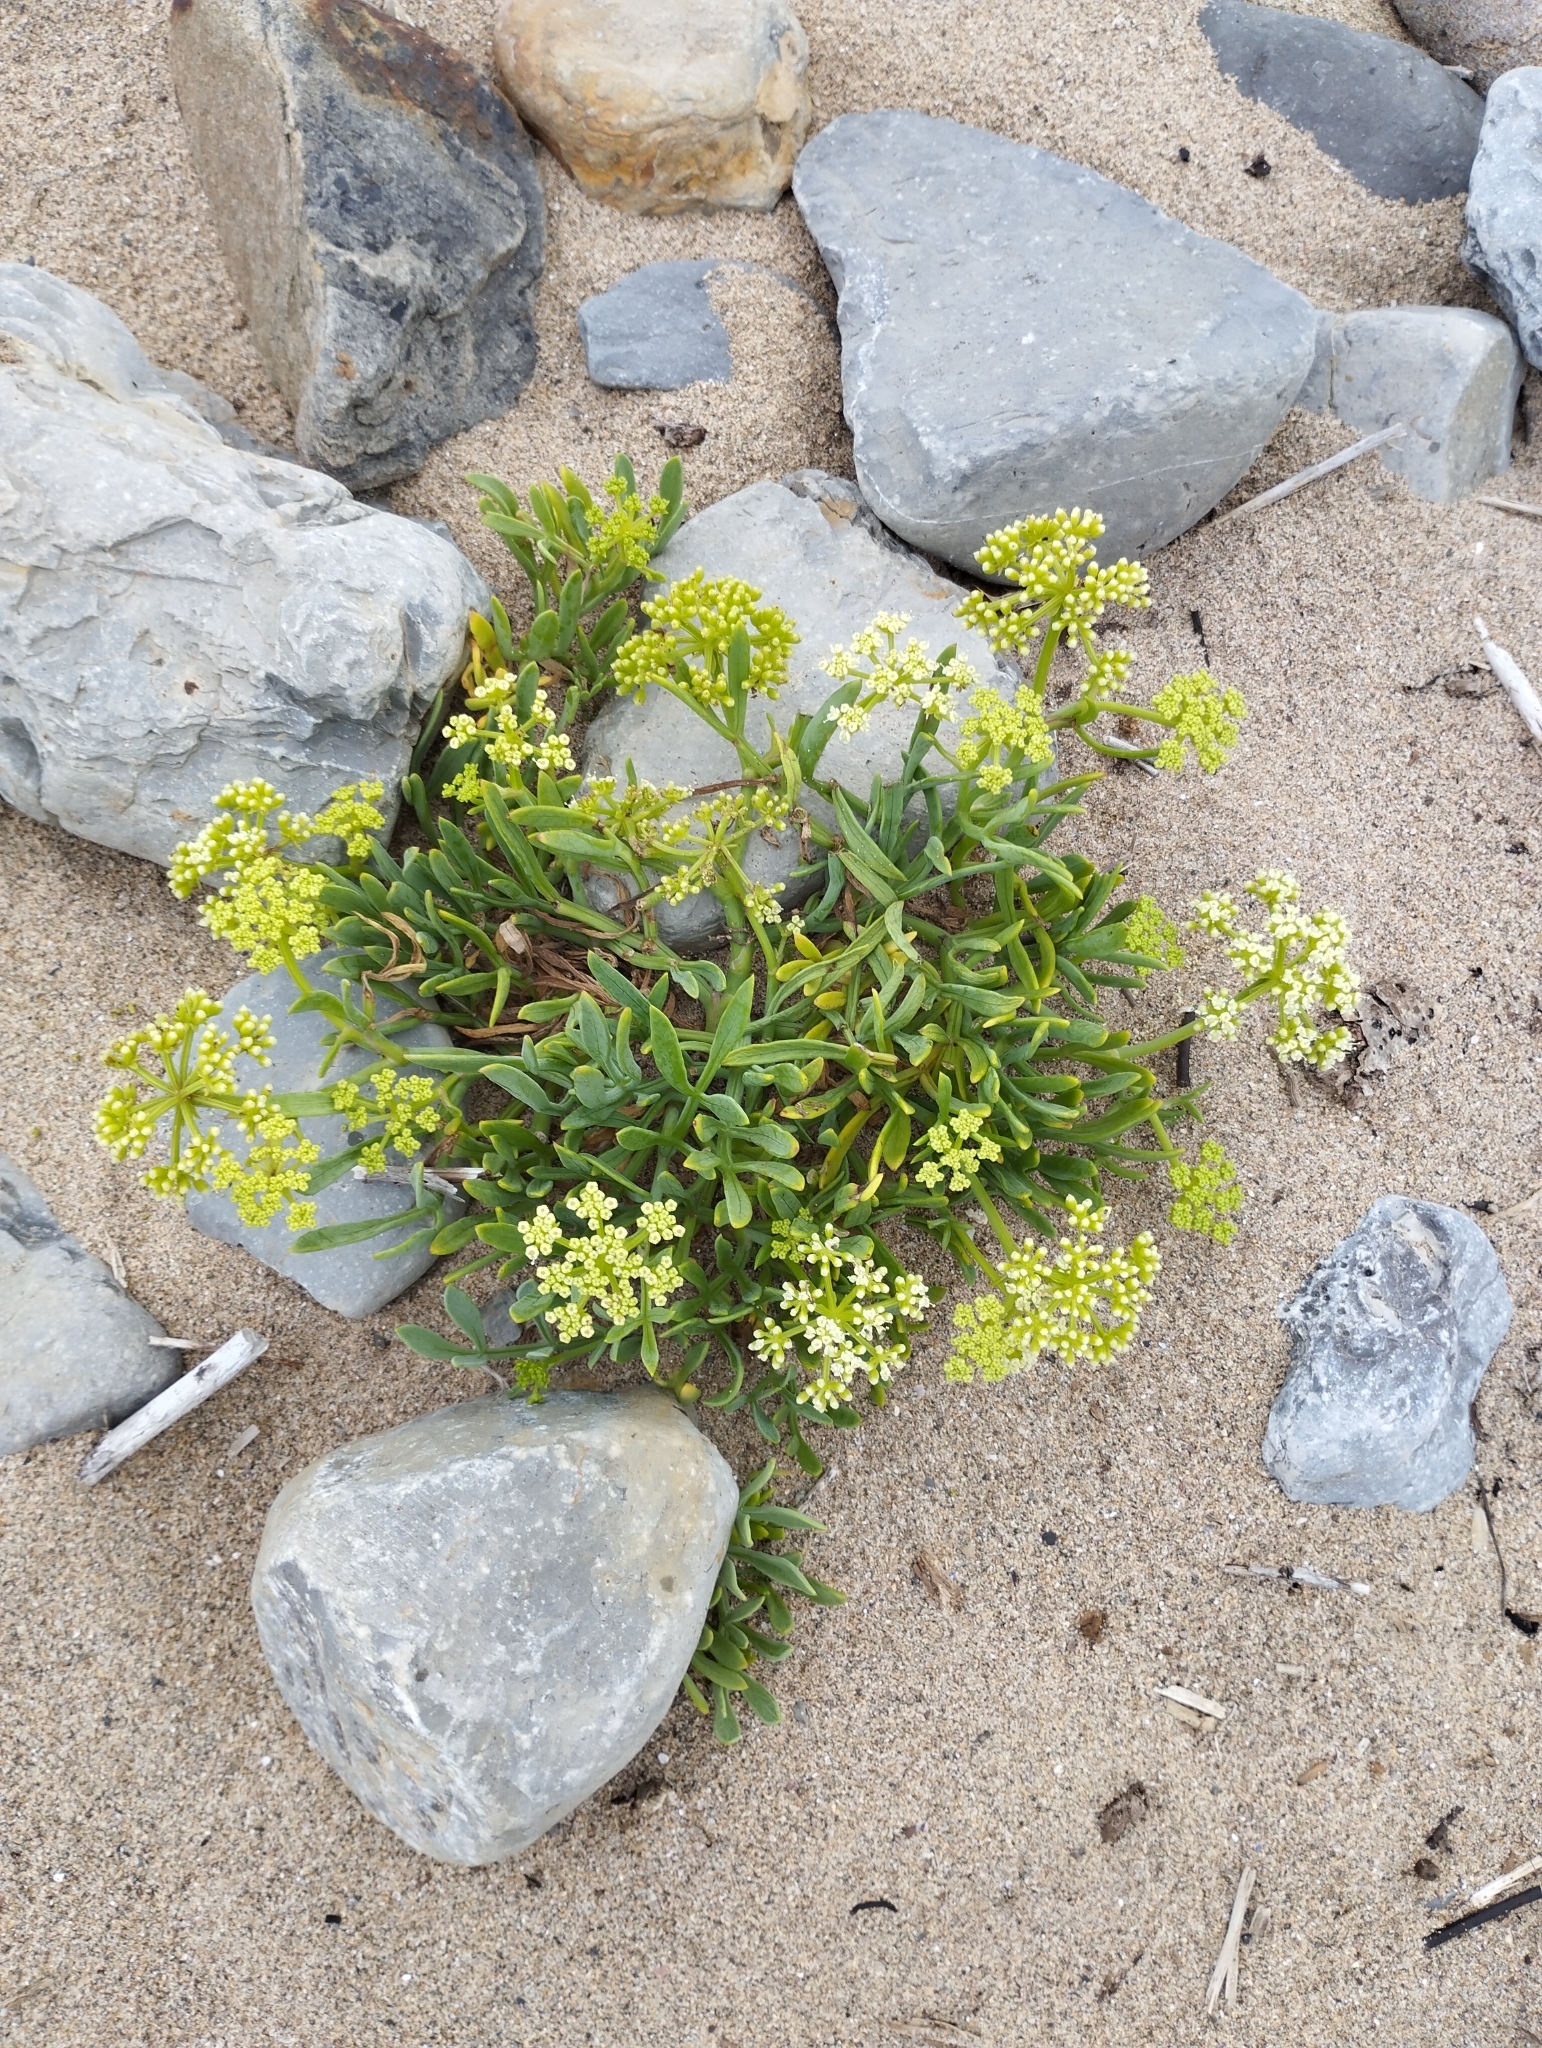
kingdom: Plantae
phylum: Tracheophyta
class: Magnoliopsida
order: Apiales
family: Apiaceae
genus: Crithmum
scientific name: Crithmum maritimum
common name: Rock samphire
